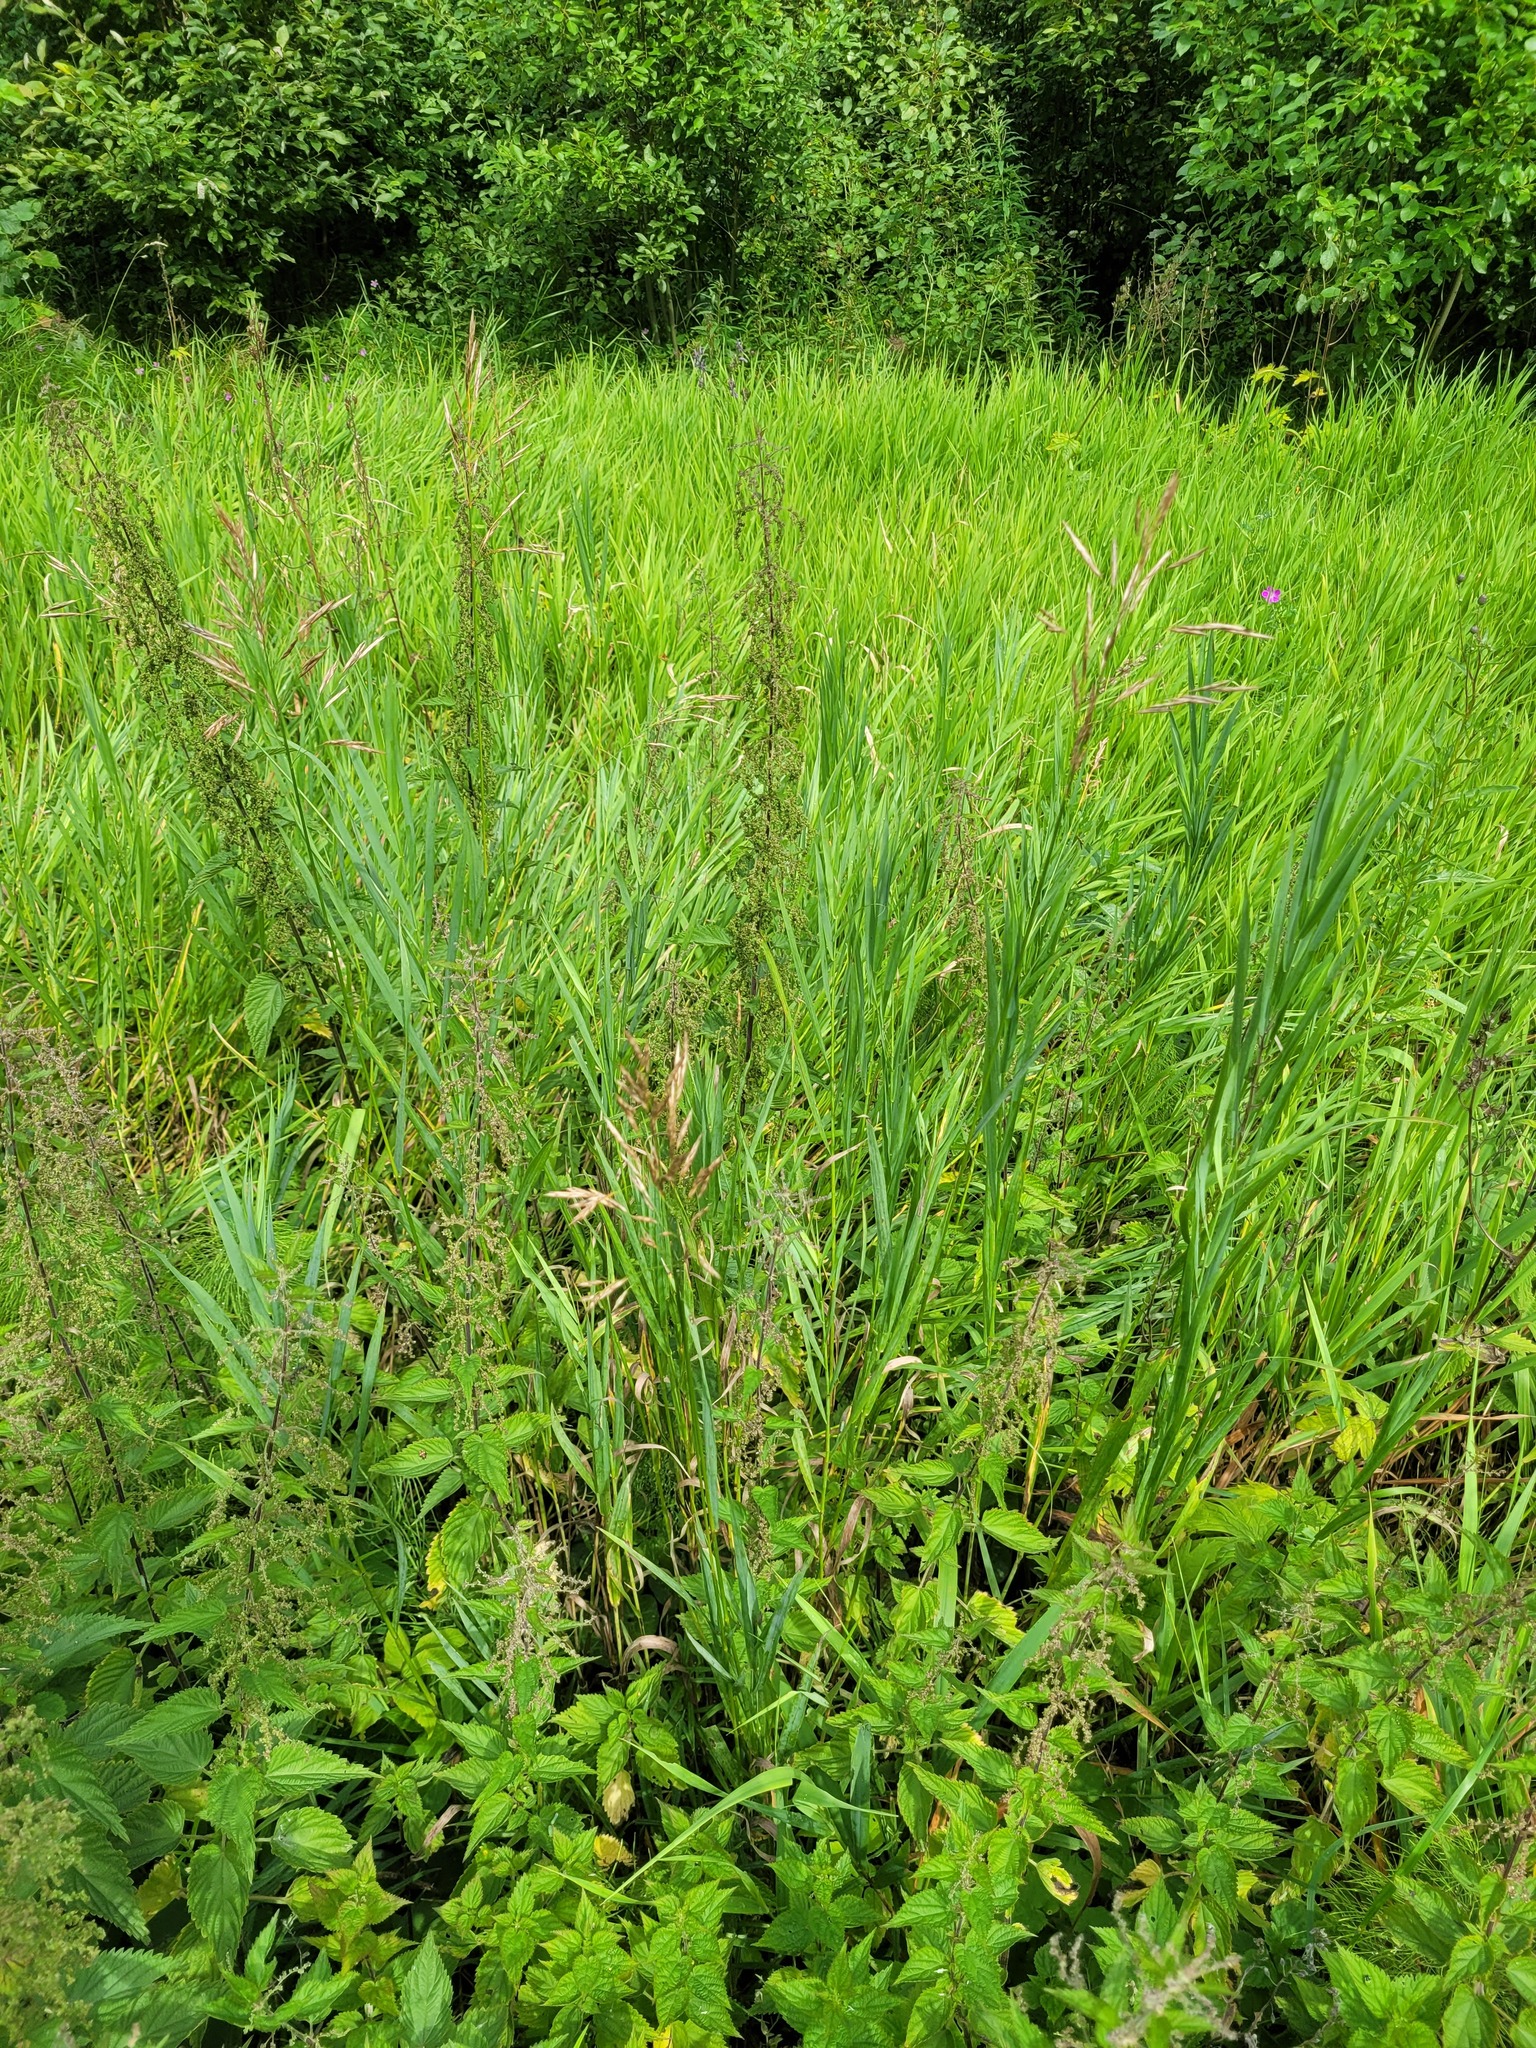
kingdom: Plantae
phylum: Tracheophyta
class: Liliopsida
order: Poales
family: Poaceae
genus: Bromus
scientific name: Bromus inermis
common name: Smooth brome
